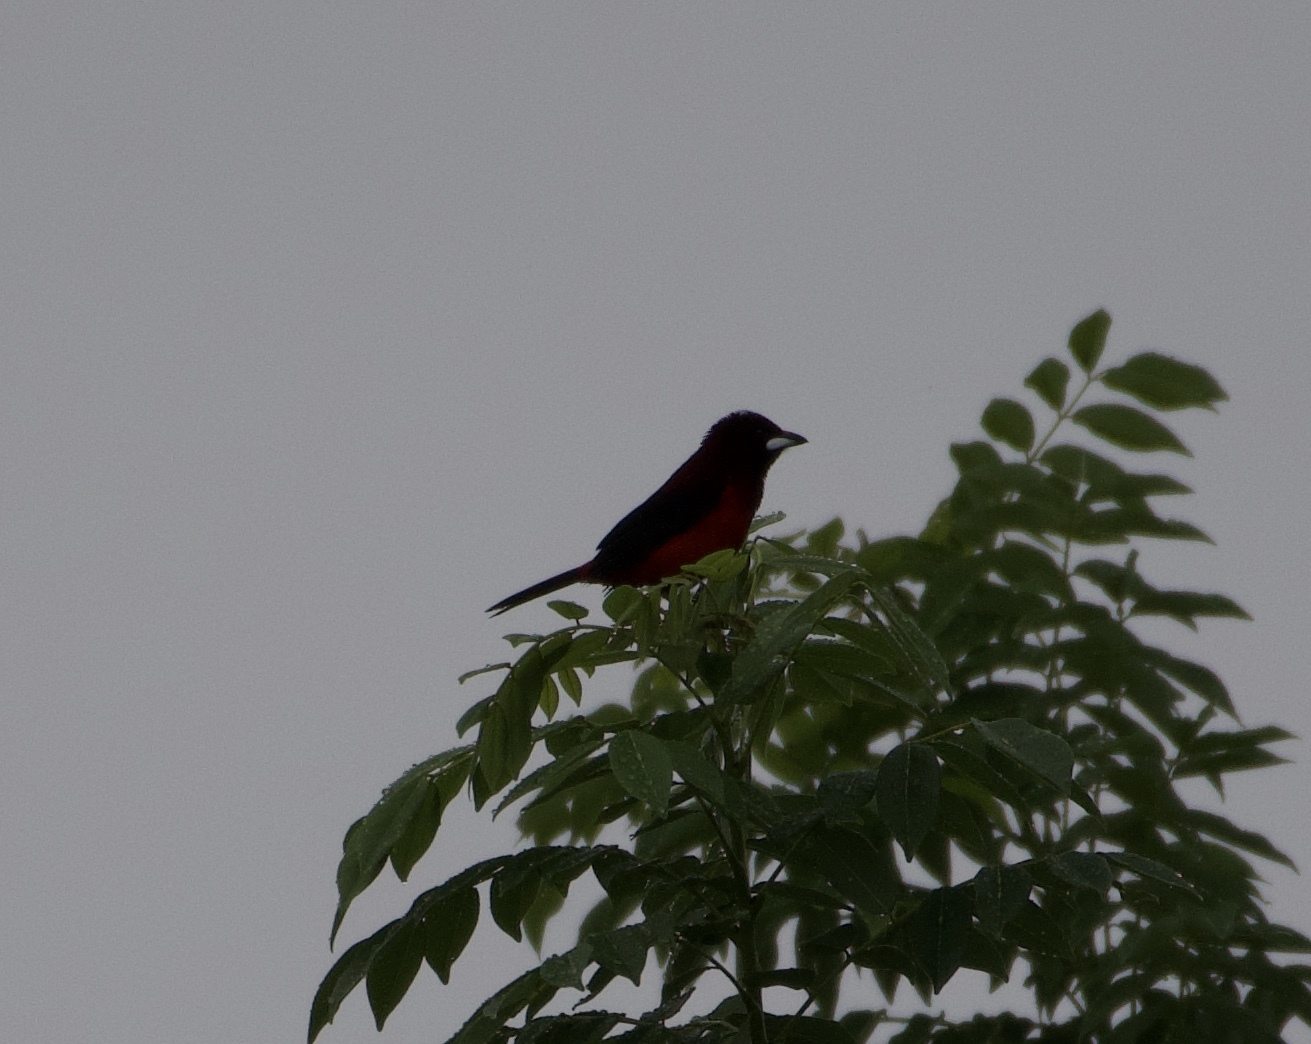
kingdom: Animalia
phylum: Chordata
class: Aves
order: Passeriformes
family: Thraupidae
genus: Ramphocelus
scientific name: Ramphocelus dimidiatus
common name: Crimson-backed tanager
